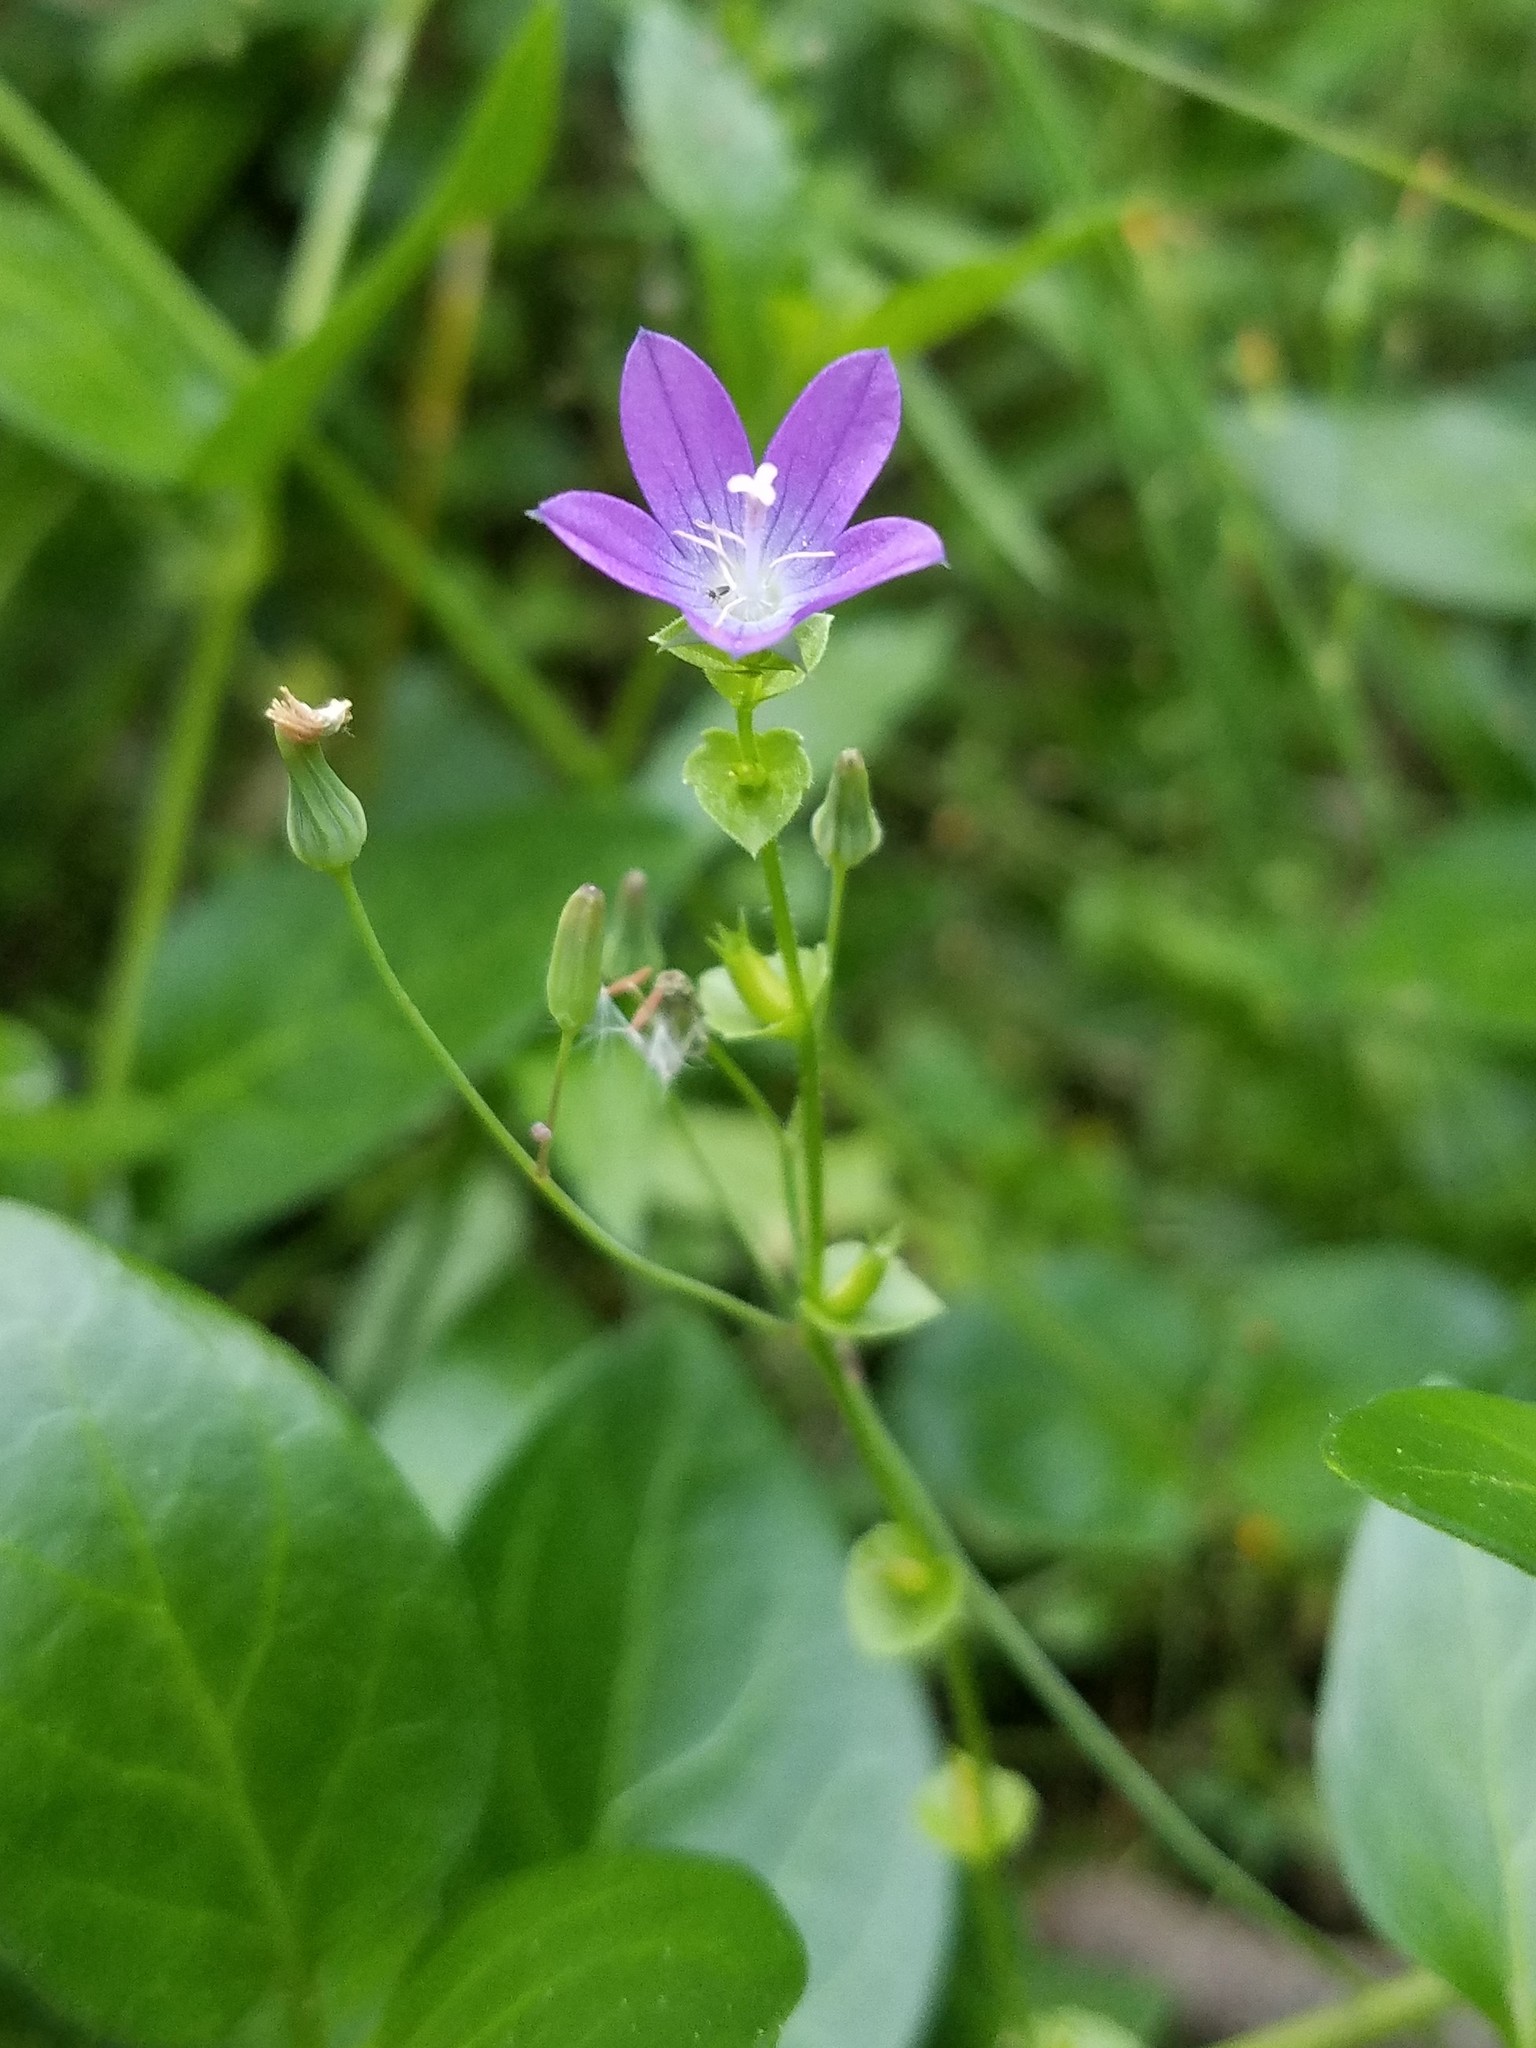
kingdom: Plantae
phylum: Tracheophyta
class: Magnoliopsida
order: Asterales
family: Campanulaceae
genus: Triodanis
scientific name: Triodanis perfoliata
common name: Clasping venus' looking-glass
